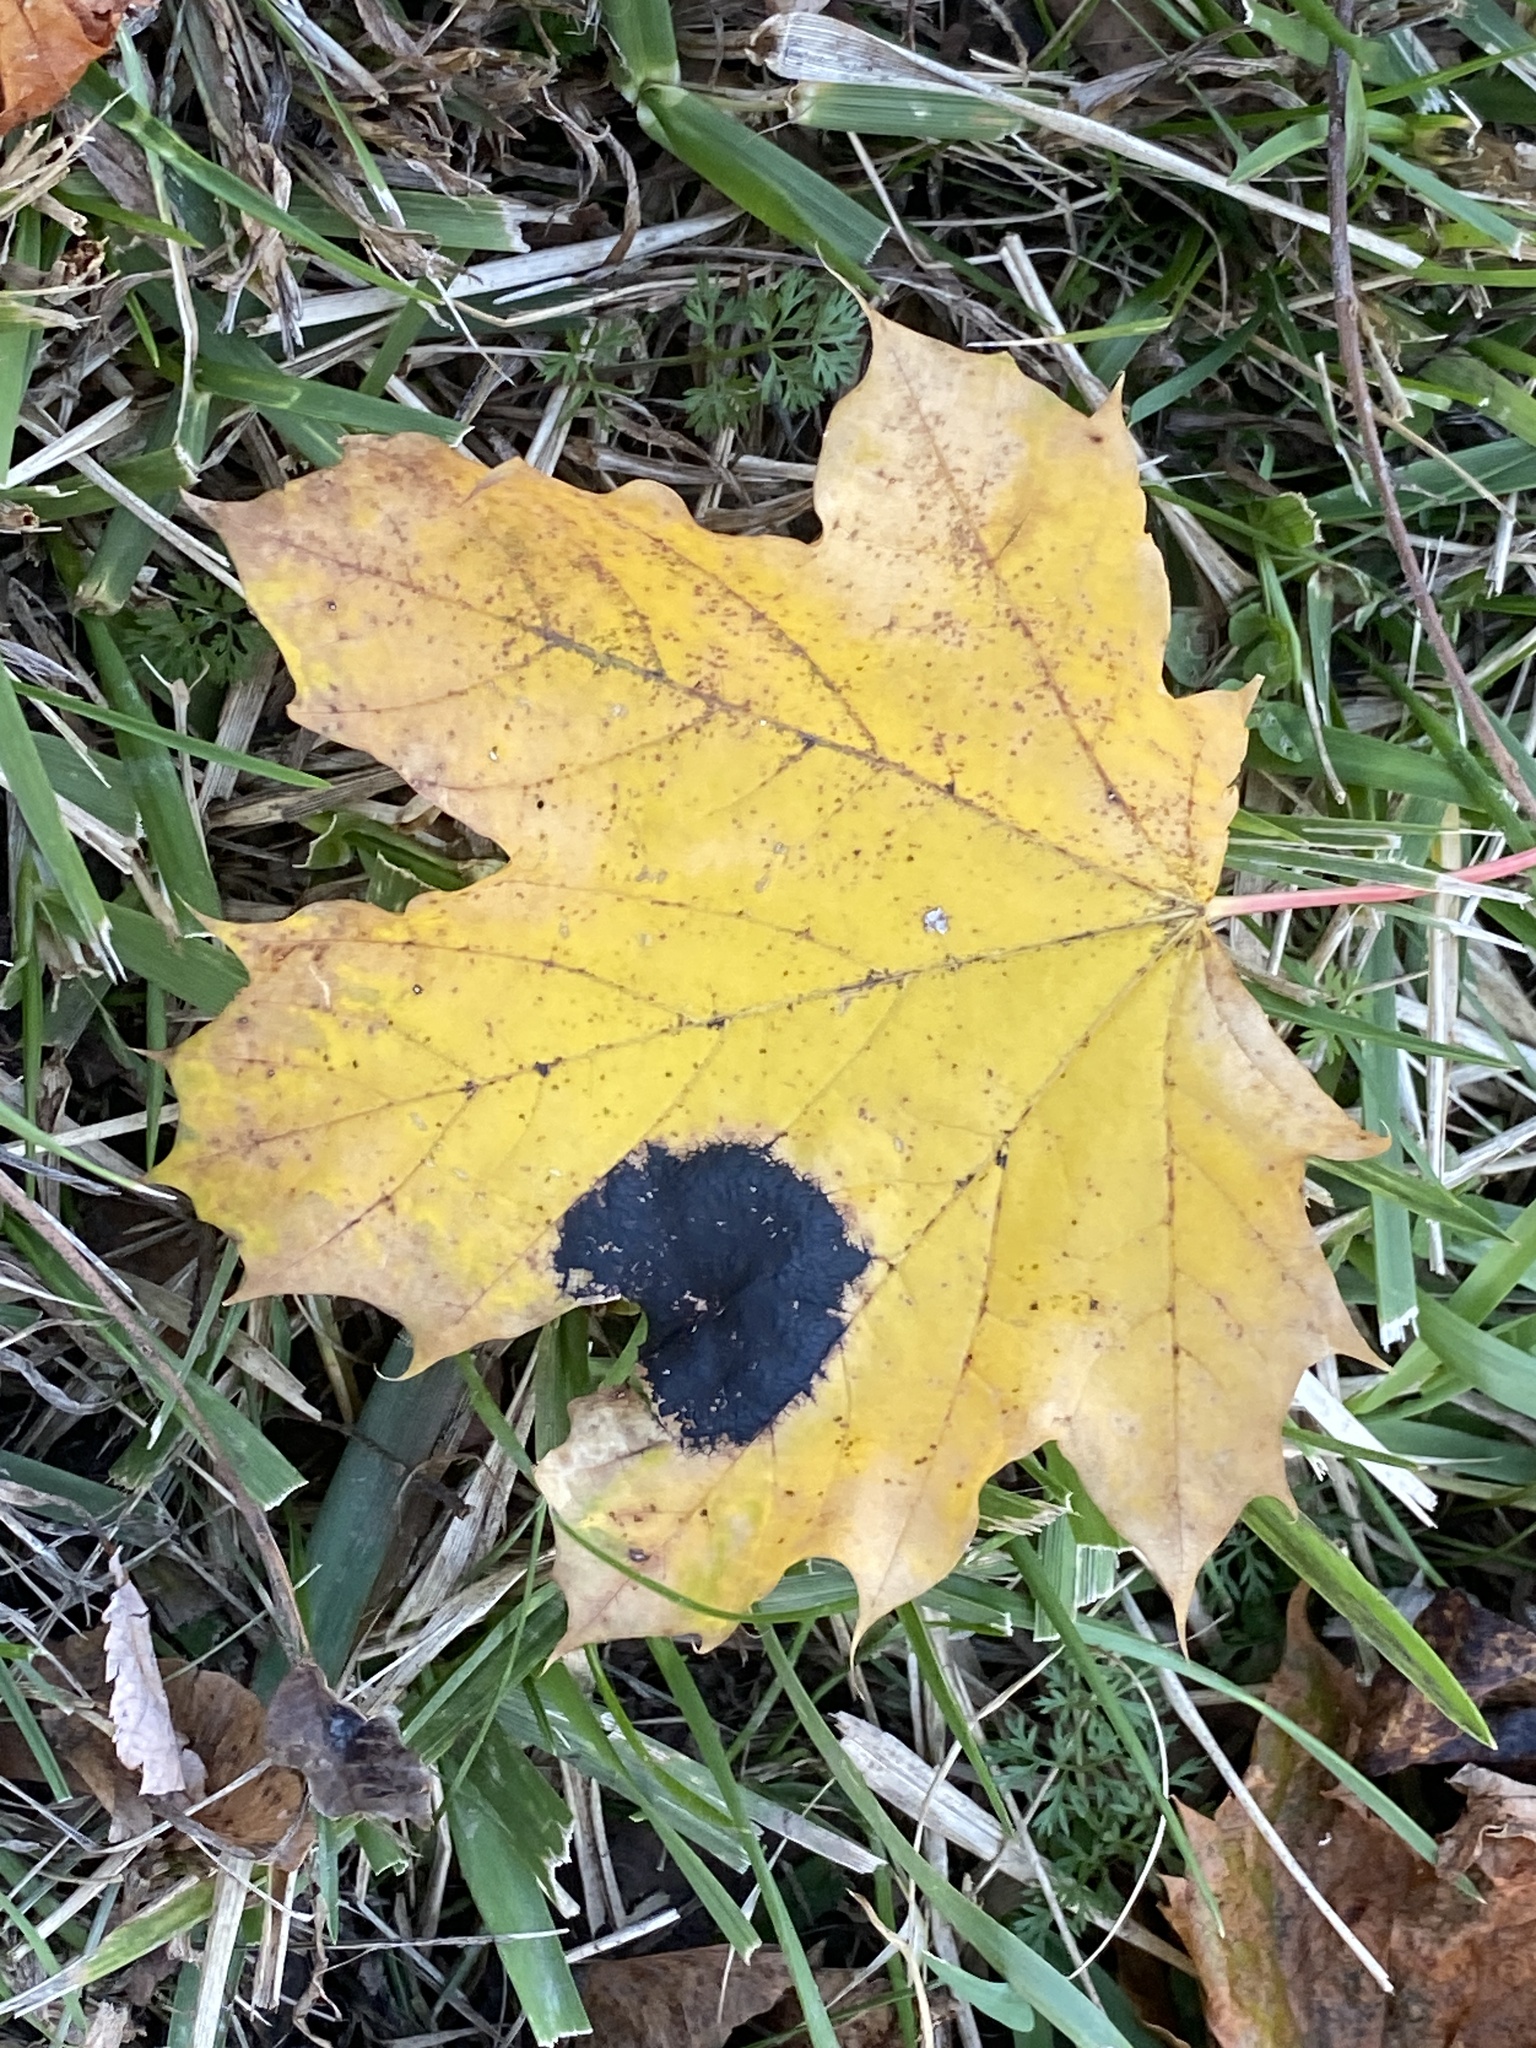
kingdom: Fungi
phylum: Ascomycota
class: Leotiomycetes
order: Rhytismatales
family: Rhytismataceae
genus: Rhytisma
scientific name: Rhytisma acerinum
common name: European tar spot
